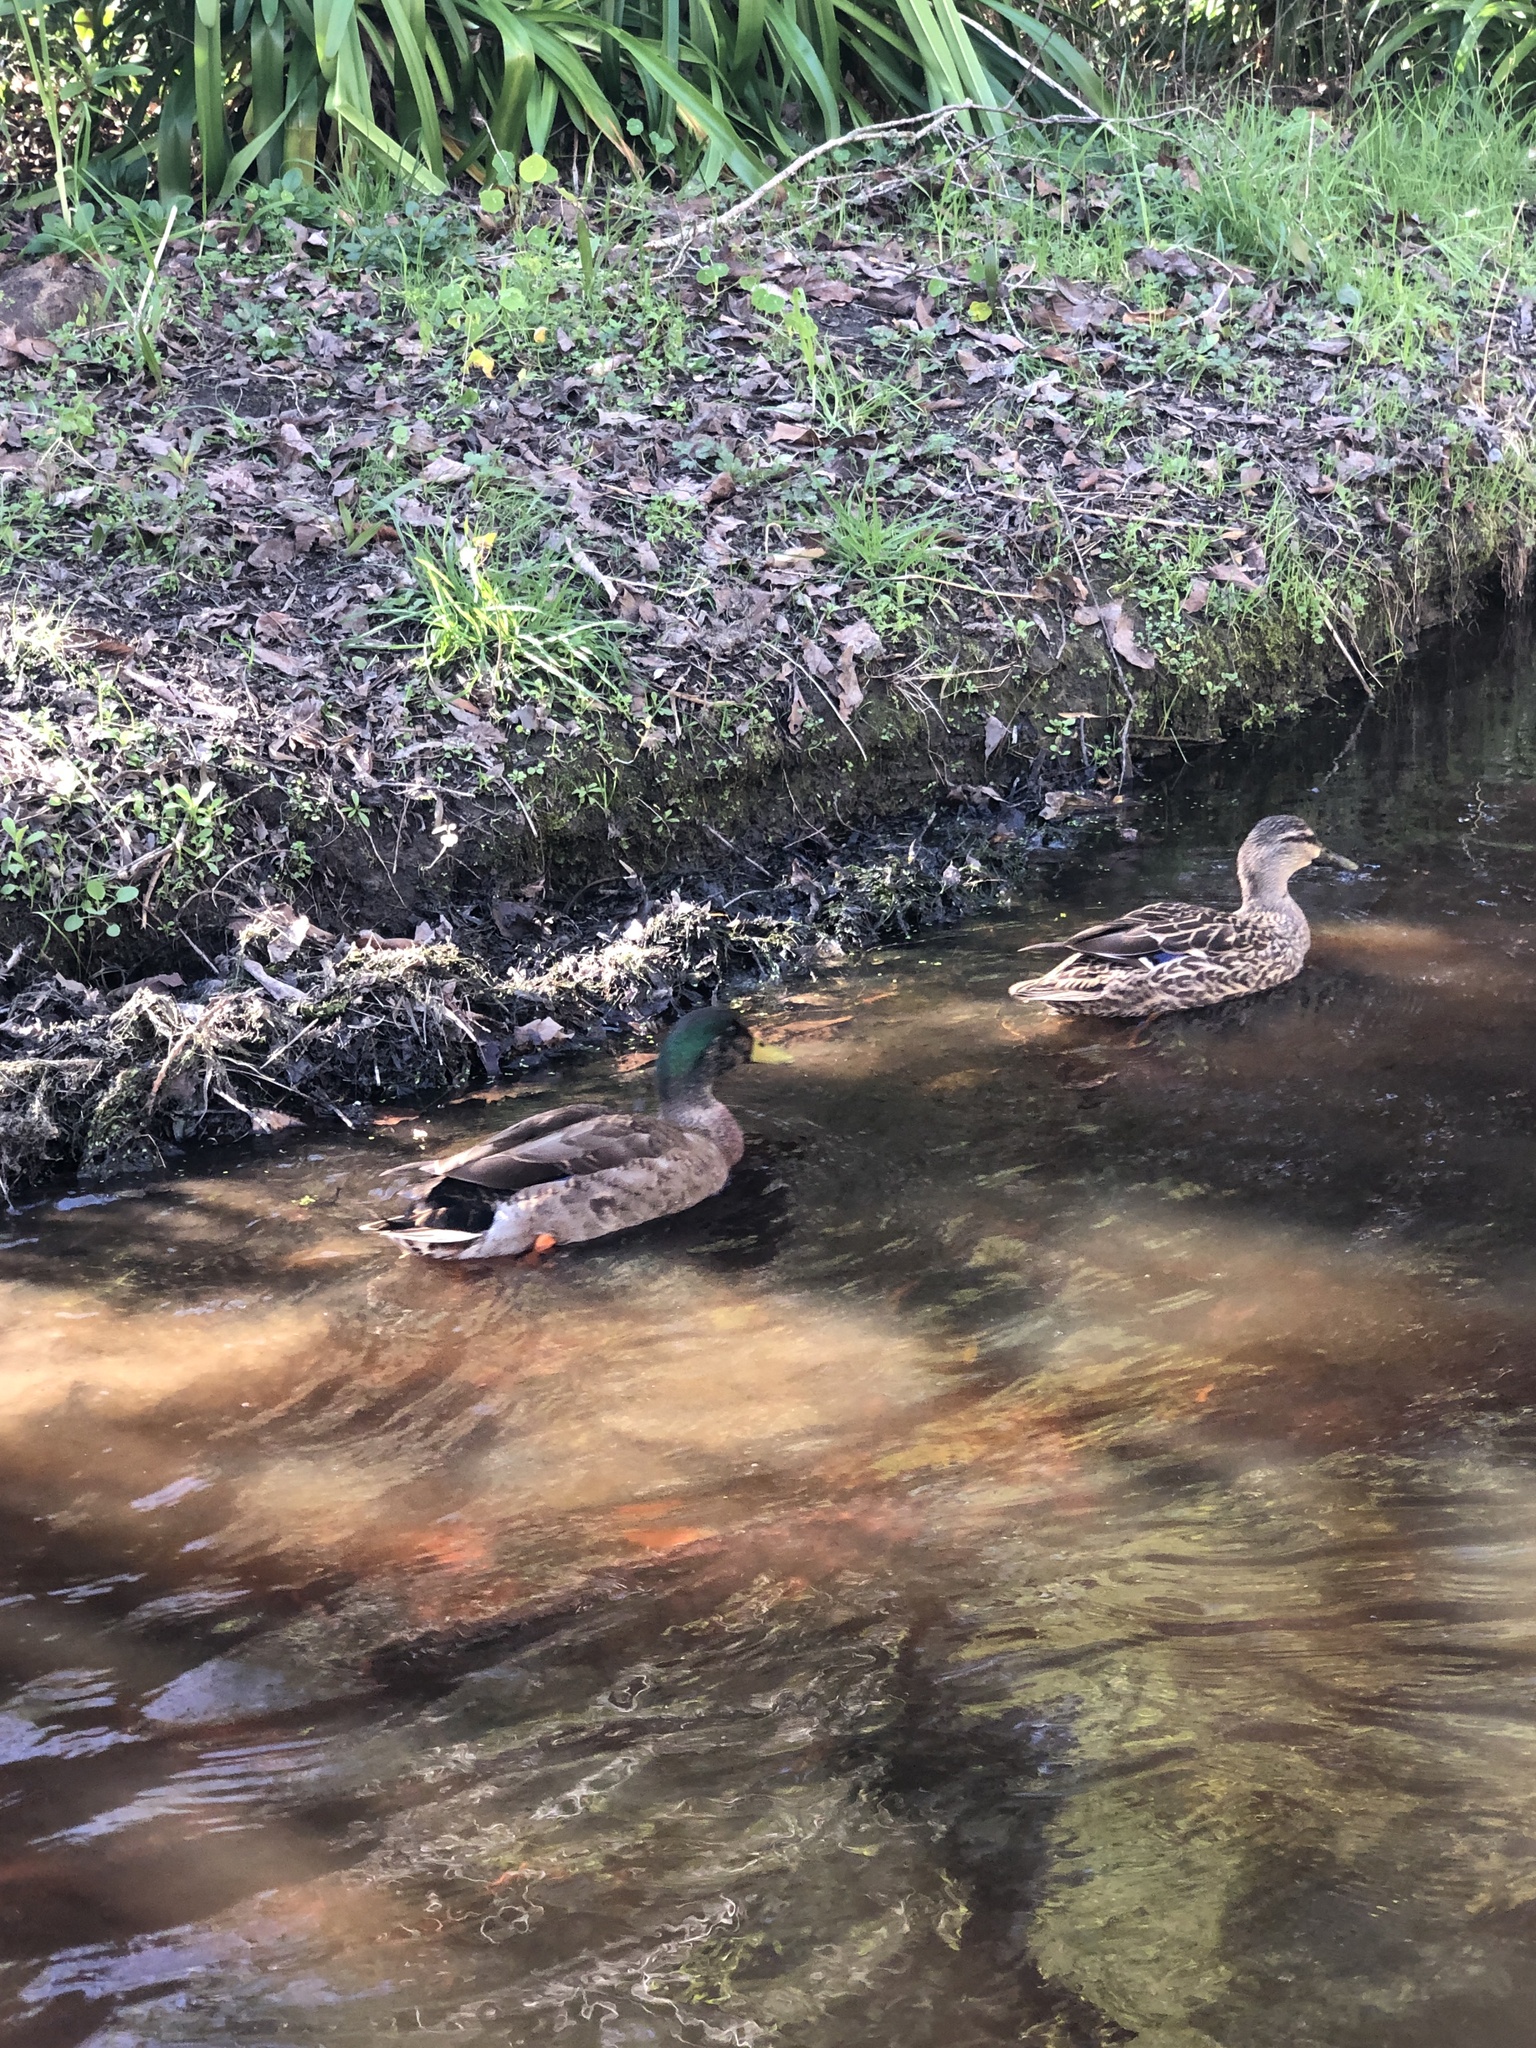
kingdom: Animalia
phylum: Chordata
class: Aves
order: Anseriformes
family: Anatidae
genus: Anas
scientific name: Anas
